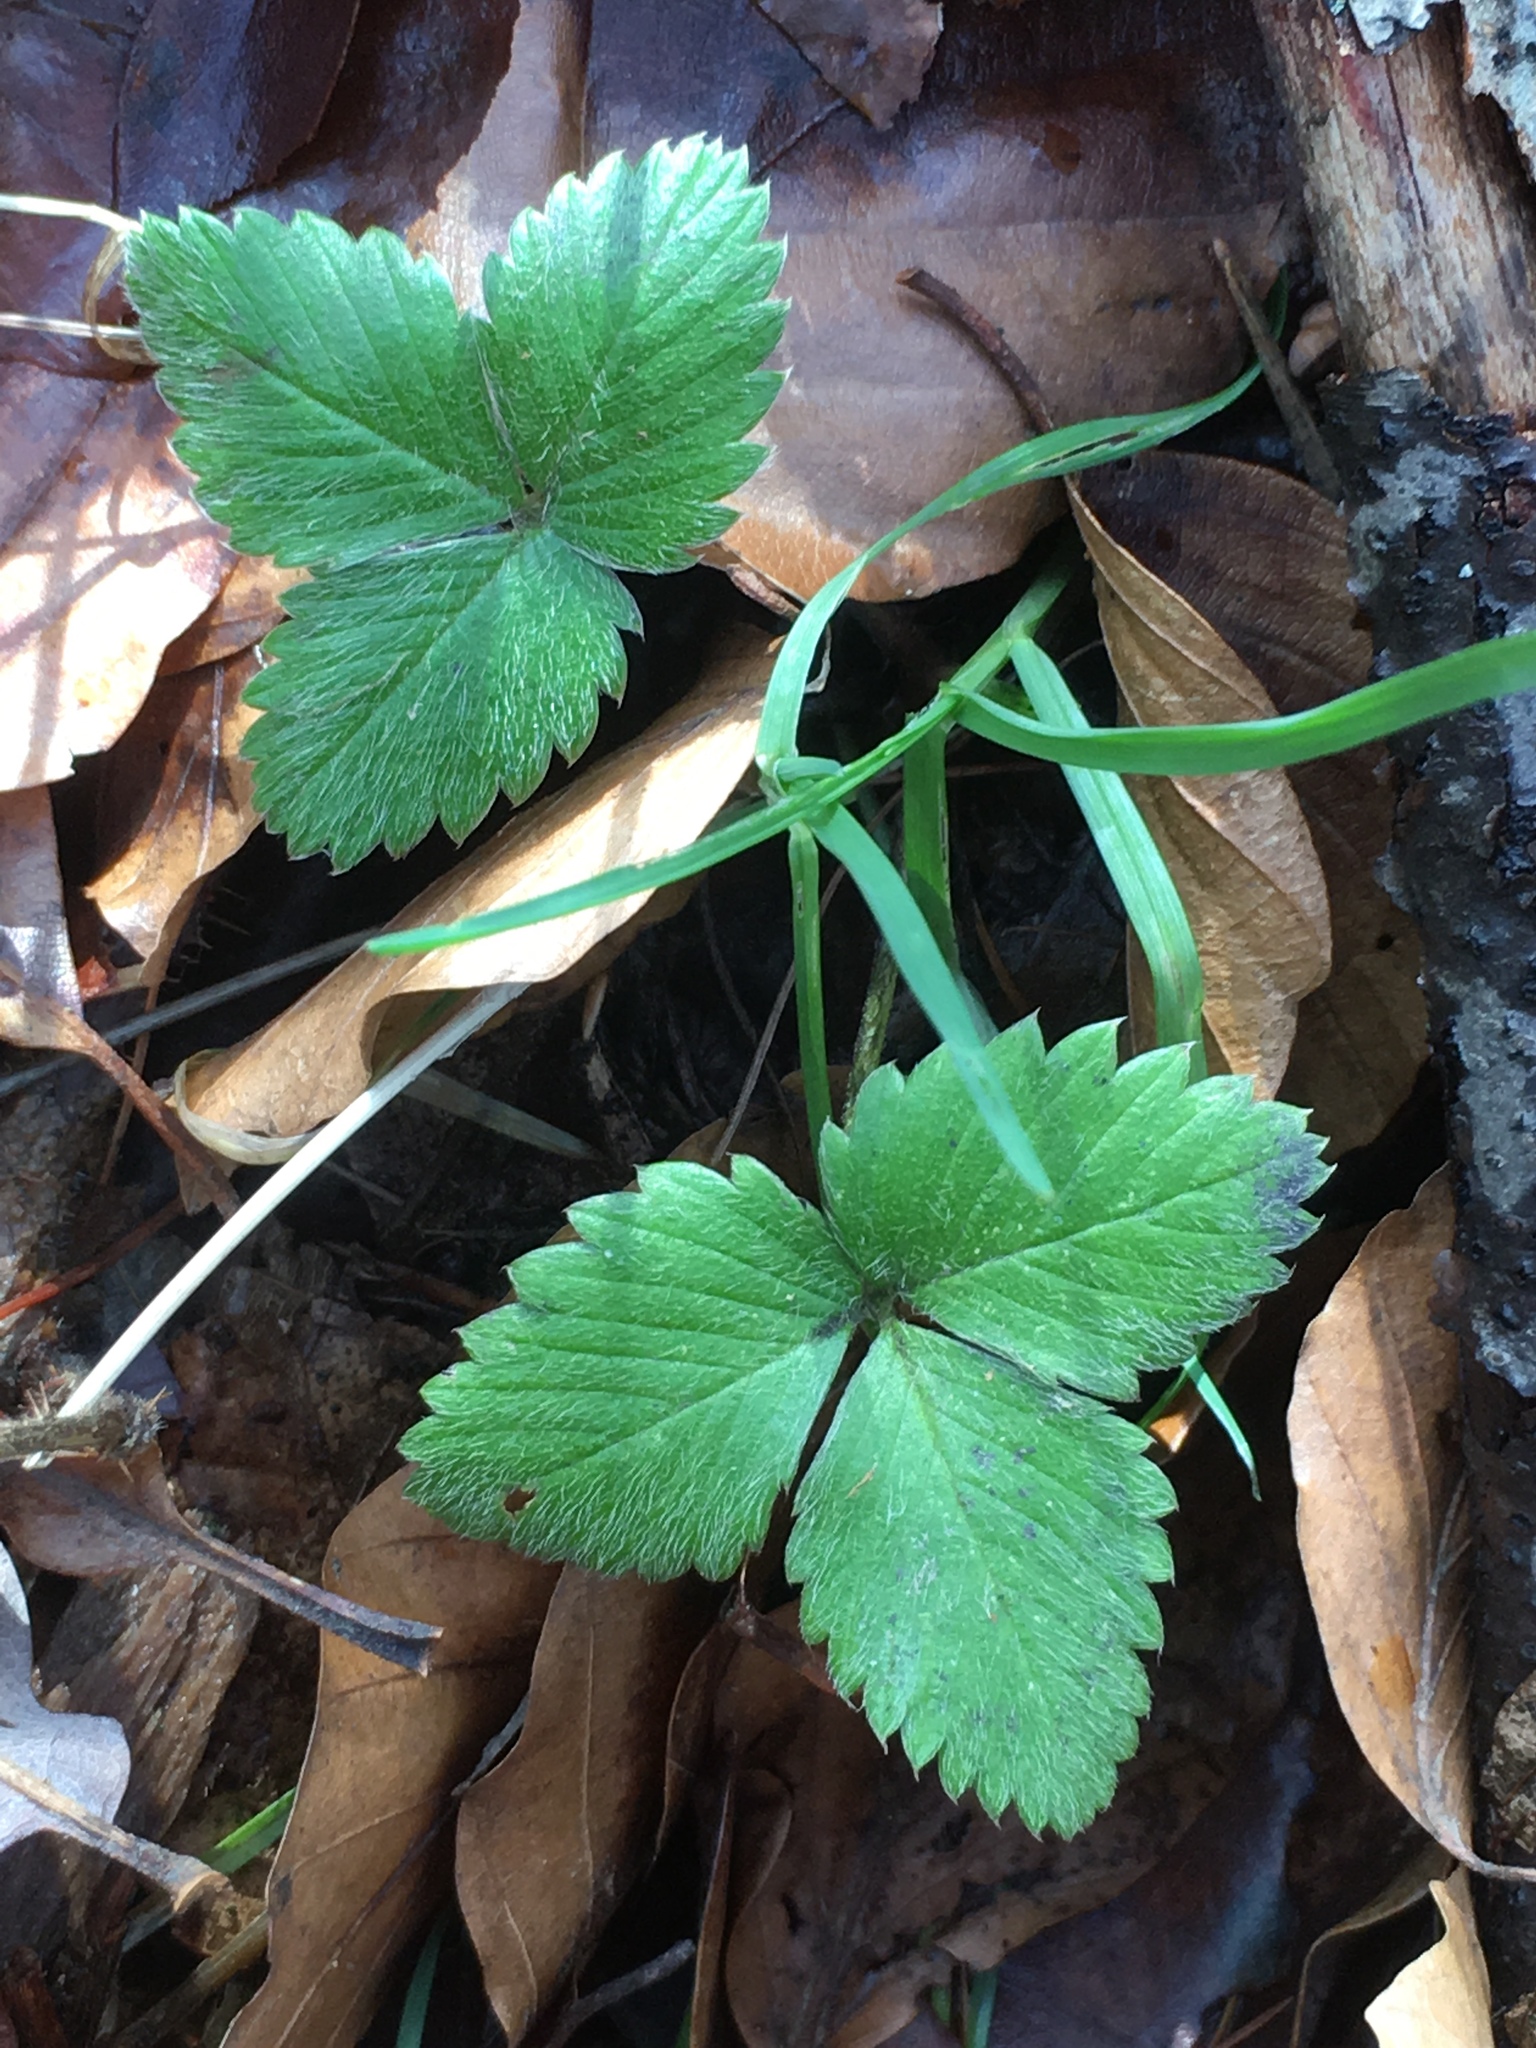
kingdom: Plantae
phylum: Tracheophyta
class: Magnoliopsida
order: Rosales
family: Rosaceae
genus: Fragaria
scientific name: Fragaria vesca
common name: Wild strawberry
